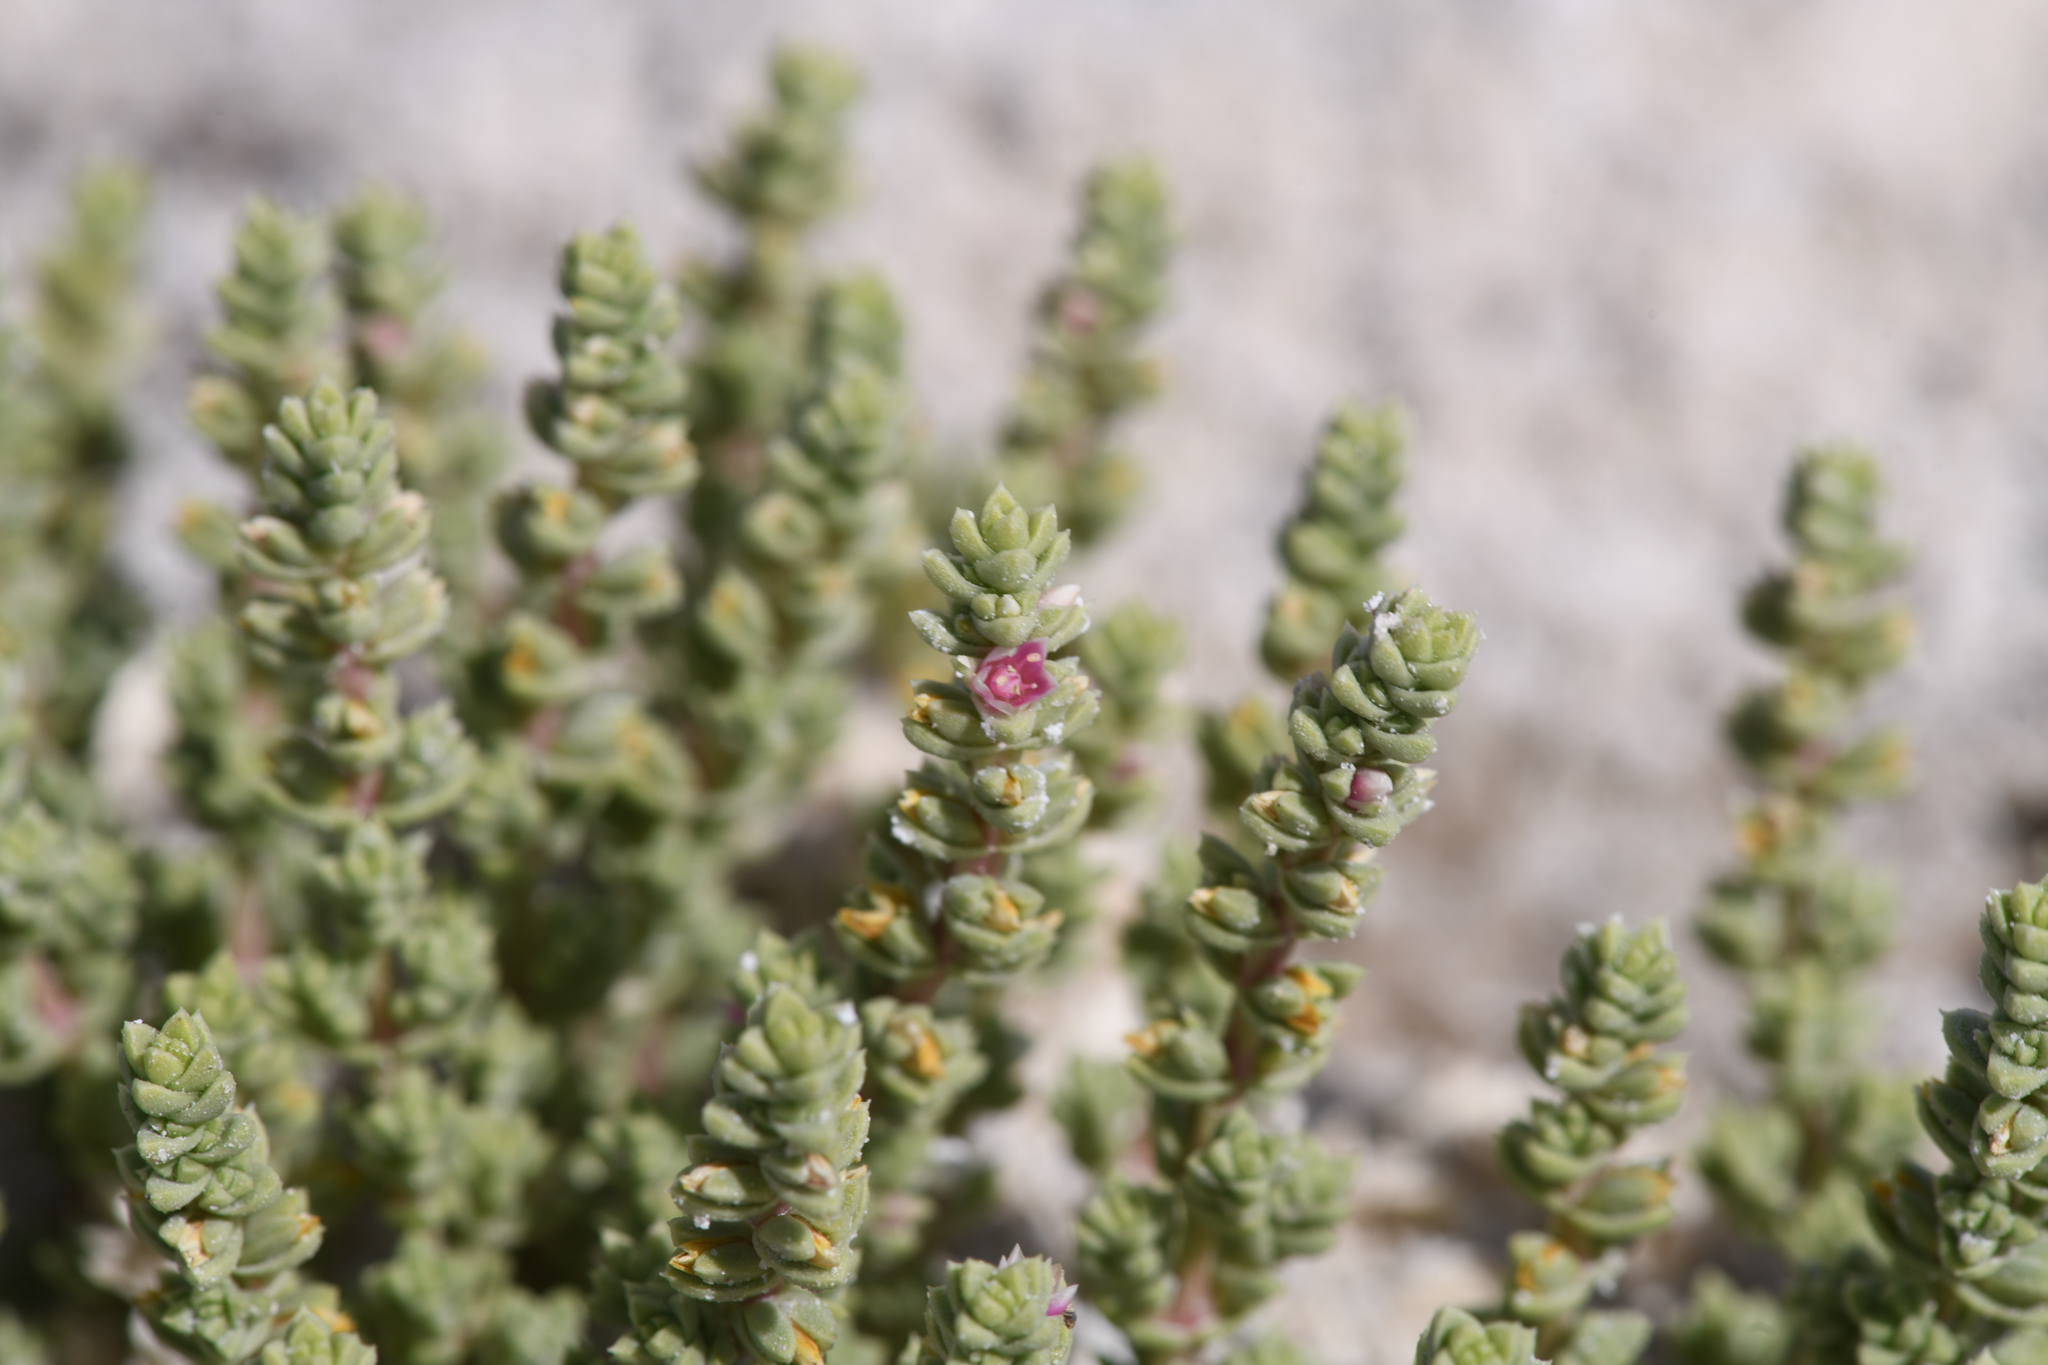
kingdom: Plantae
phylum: Tracheophyta
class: Magnoliopsida
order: Caryophyllales
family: Amaranthaceae
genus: Nitrophila
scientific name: Nitrophila mohavensis
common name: Amargosa niterwort
